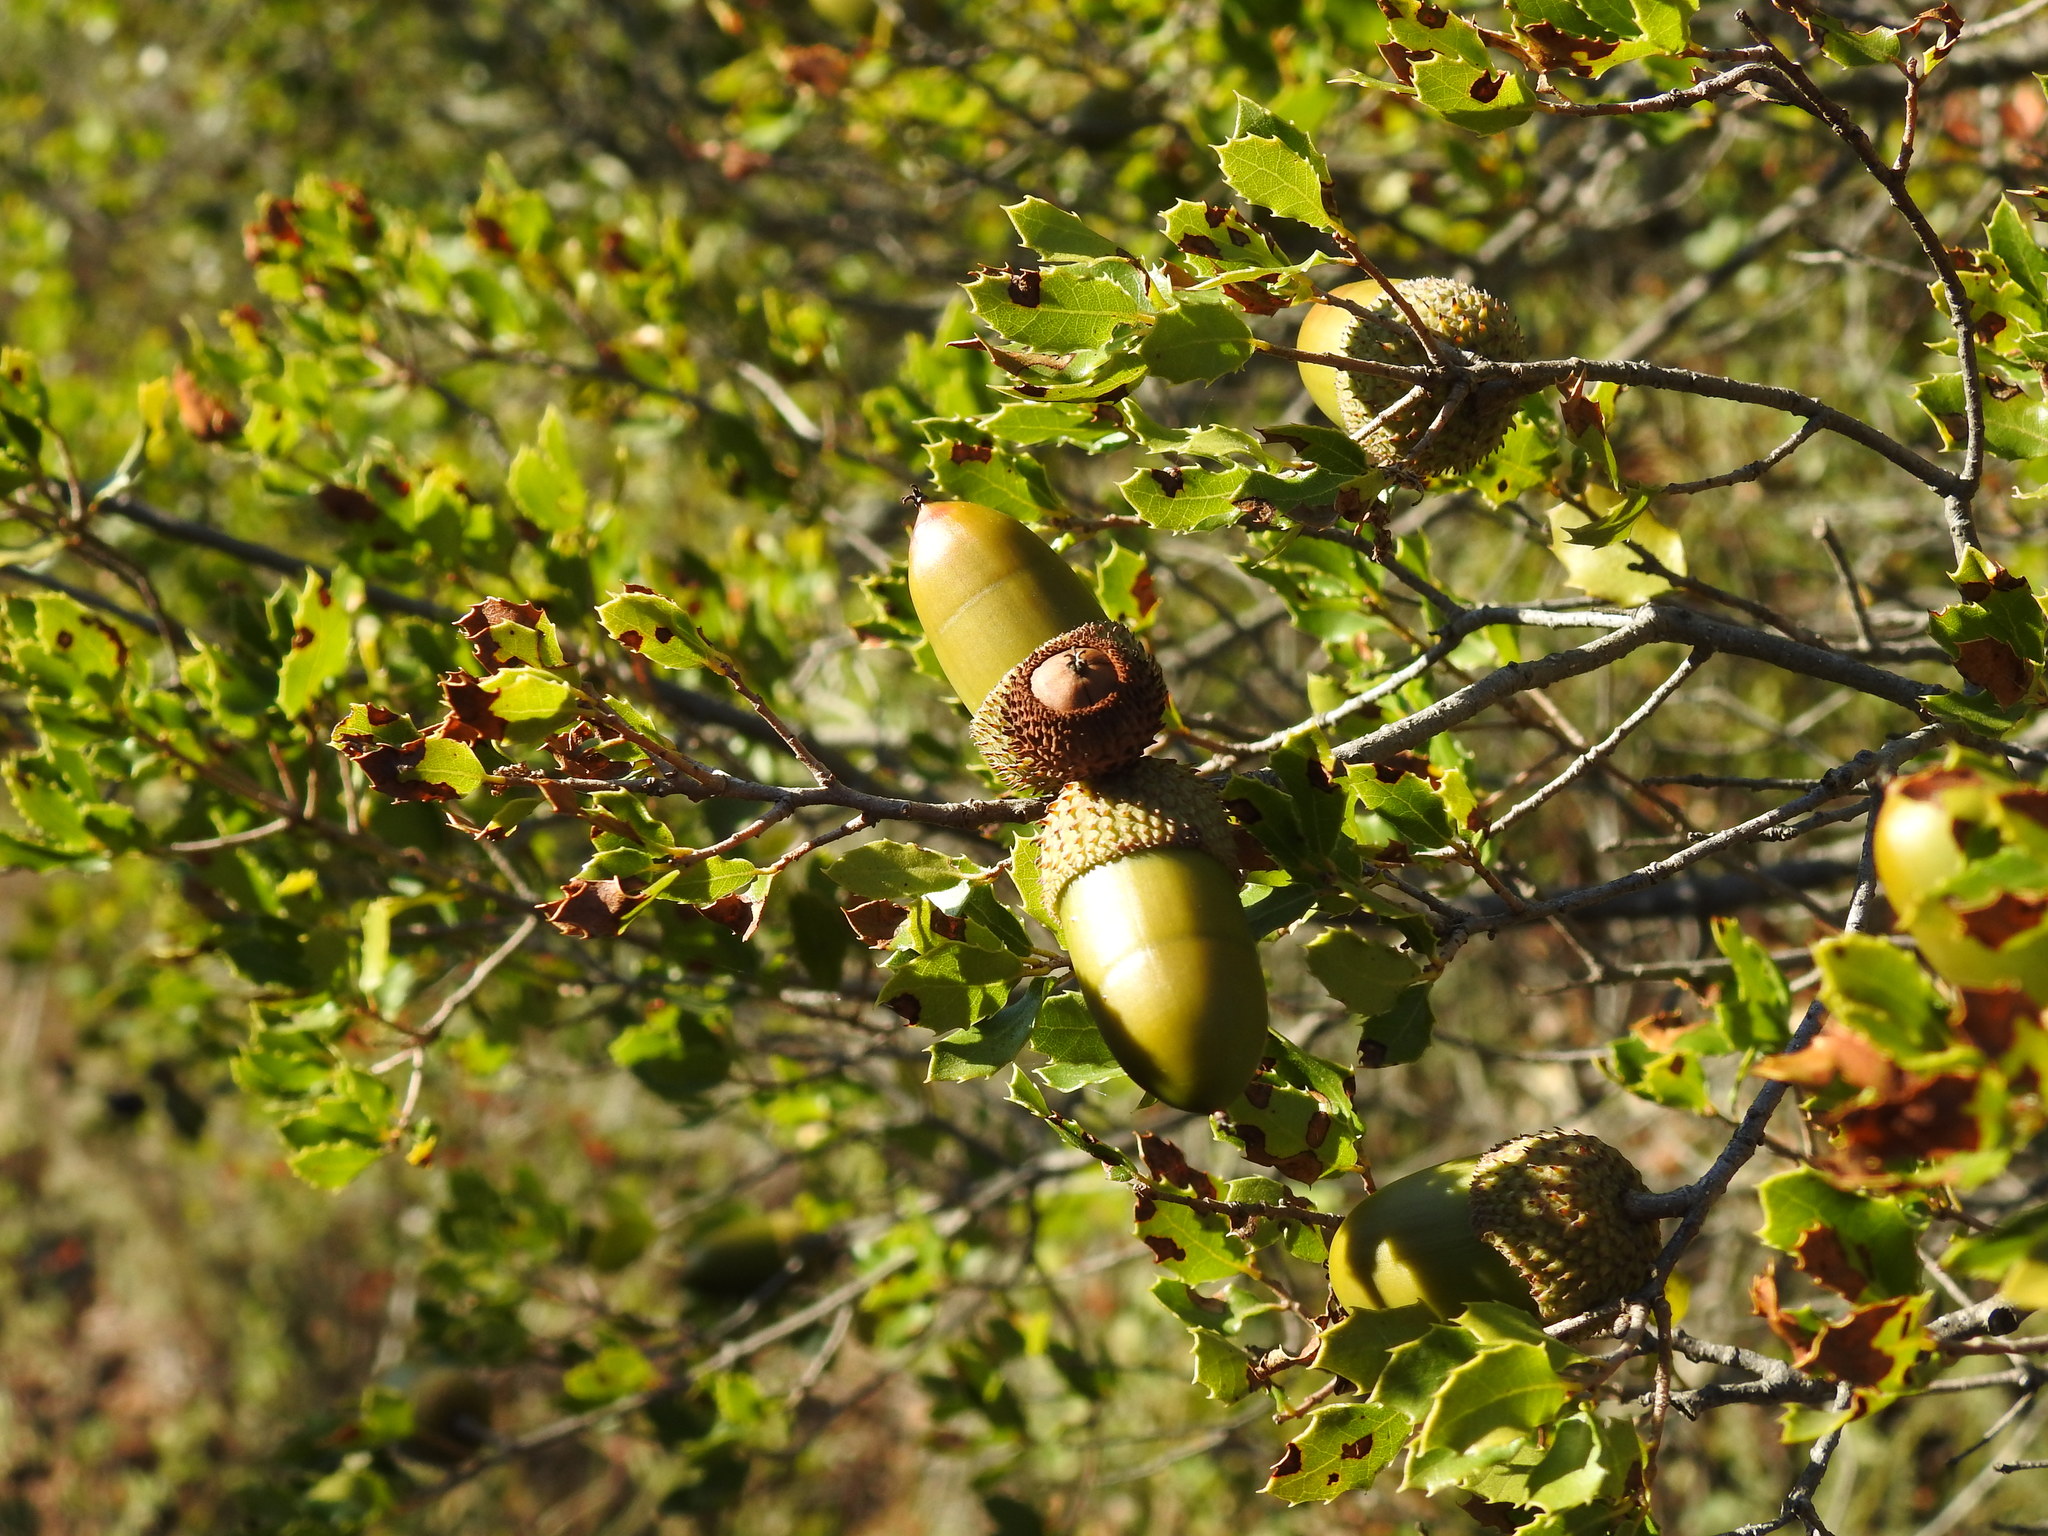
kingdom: Plantae
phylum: Tracheophyta
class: Magnoliopsida
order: Fagales
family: Fagaceae
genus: Quercus
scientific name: Quercus coccifera
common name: Kermes oak
